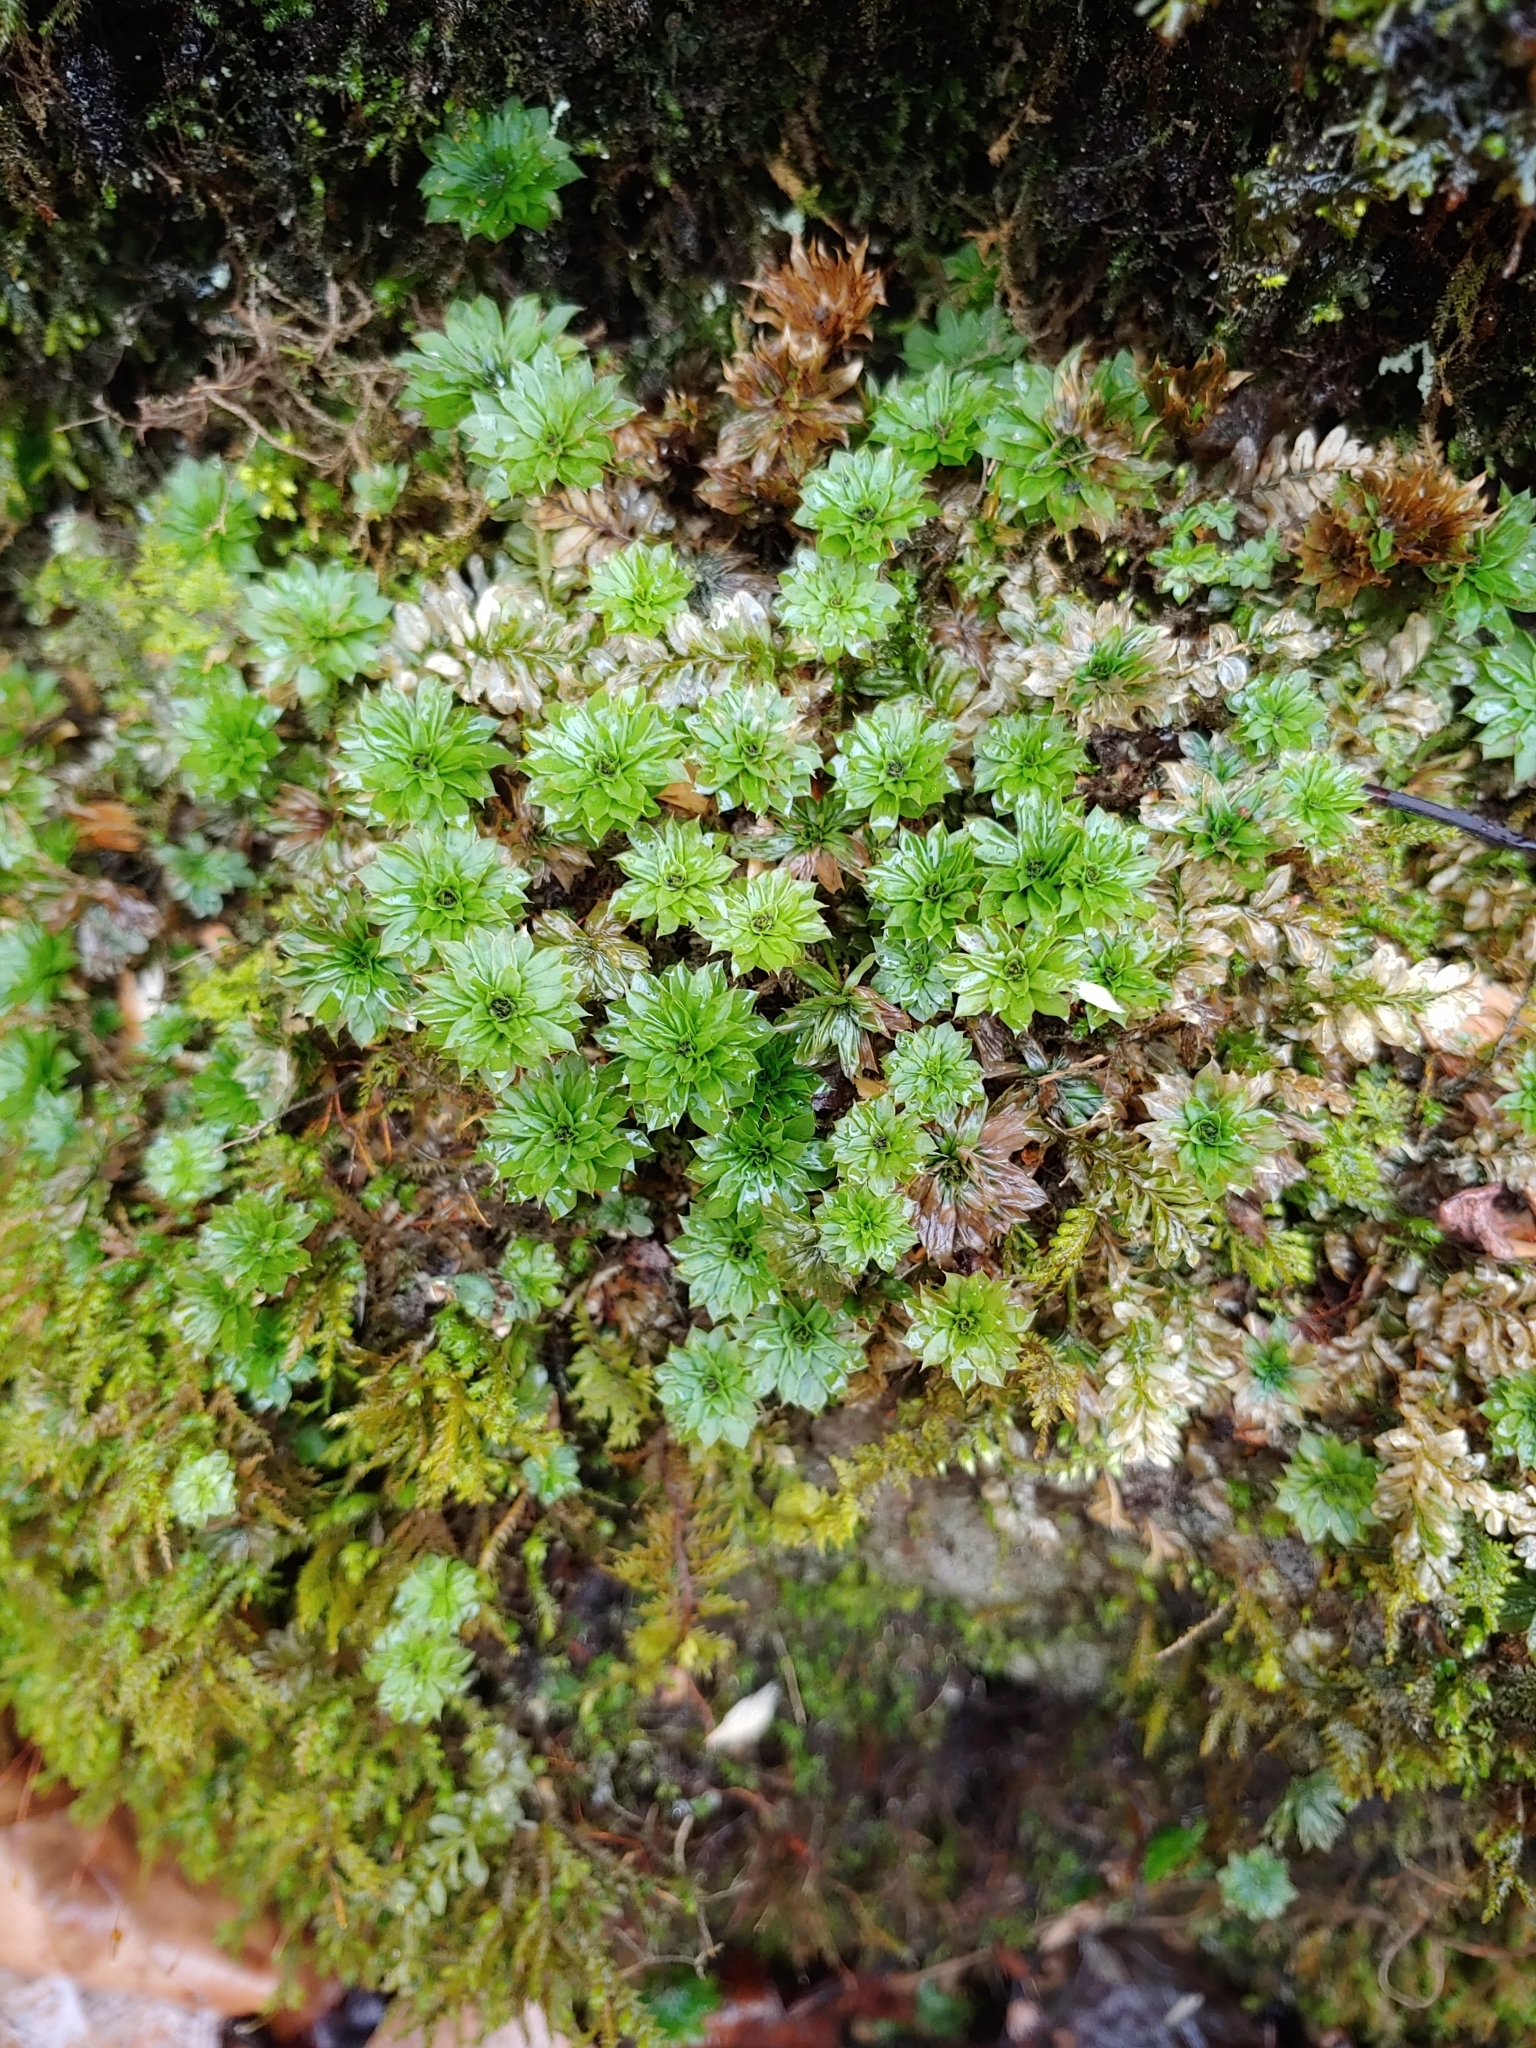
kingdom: Plantae
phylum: Bryophyta
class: Bryopsida
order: Bryales
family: Bryaceae
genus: Rhodobryum
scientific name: Rhodobryum ontariense
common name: Ontario rhodobryum moss
